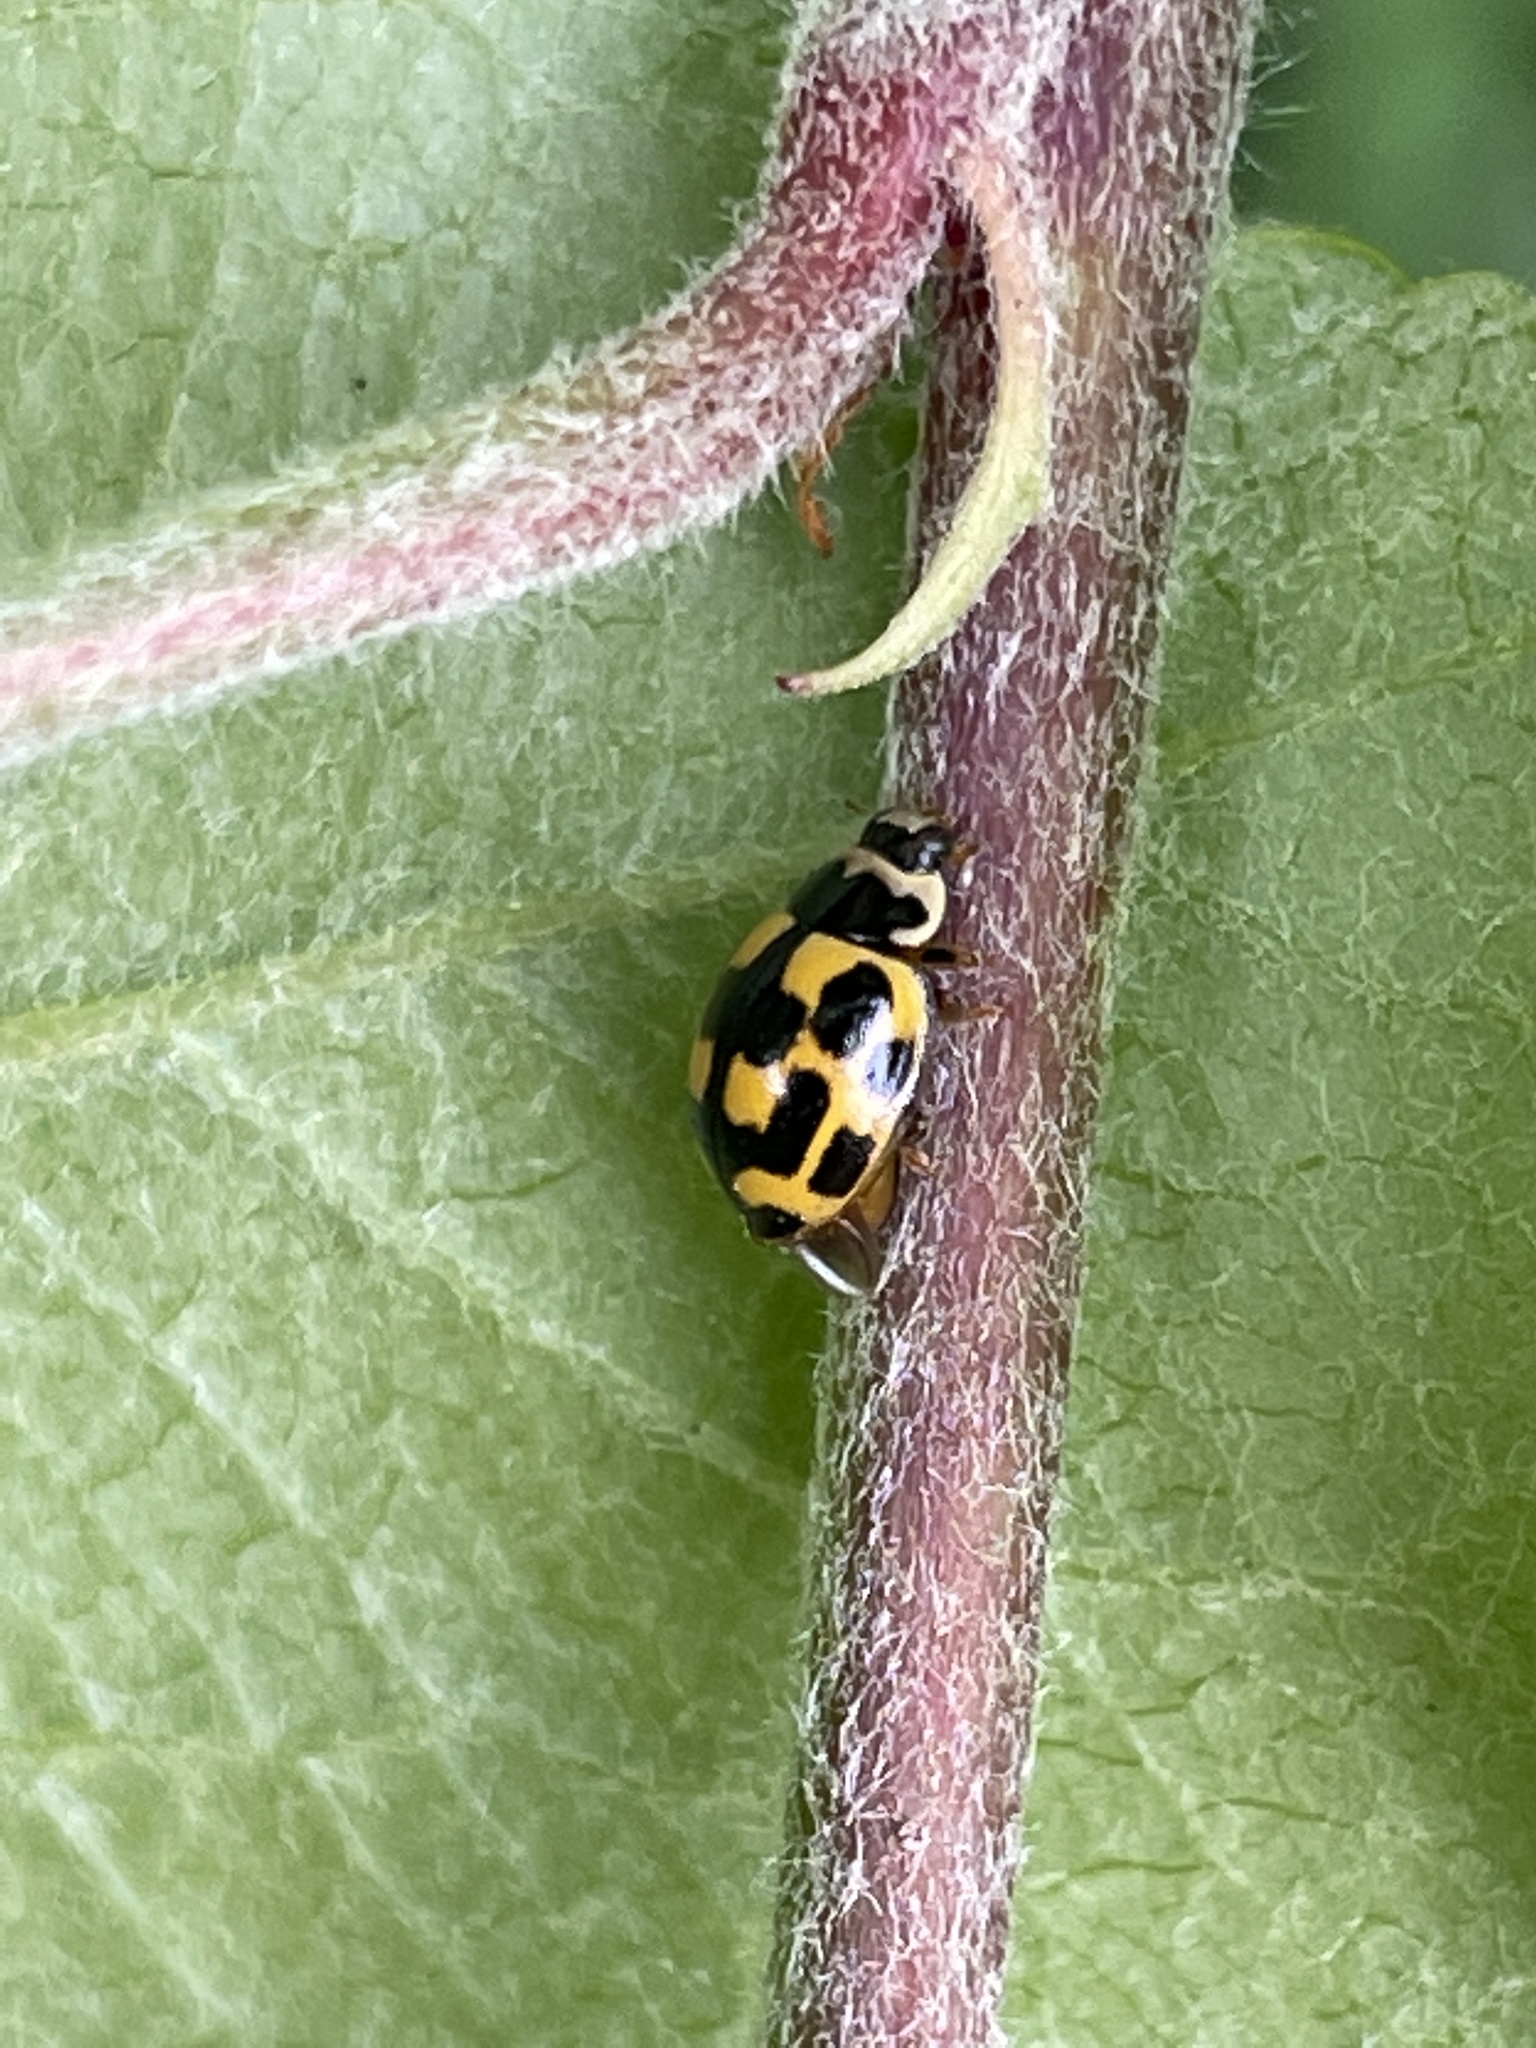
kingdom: Animalia
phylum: Arthropoda
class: Insecta
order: Coleoptera
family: Coccinellidae
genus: Propylaea
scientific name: Propylaea quatuordecimpunctata
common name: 14-spotted ladybird beetle
